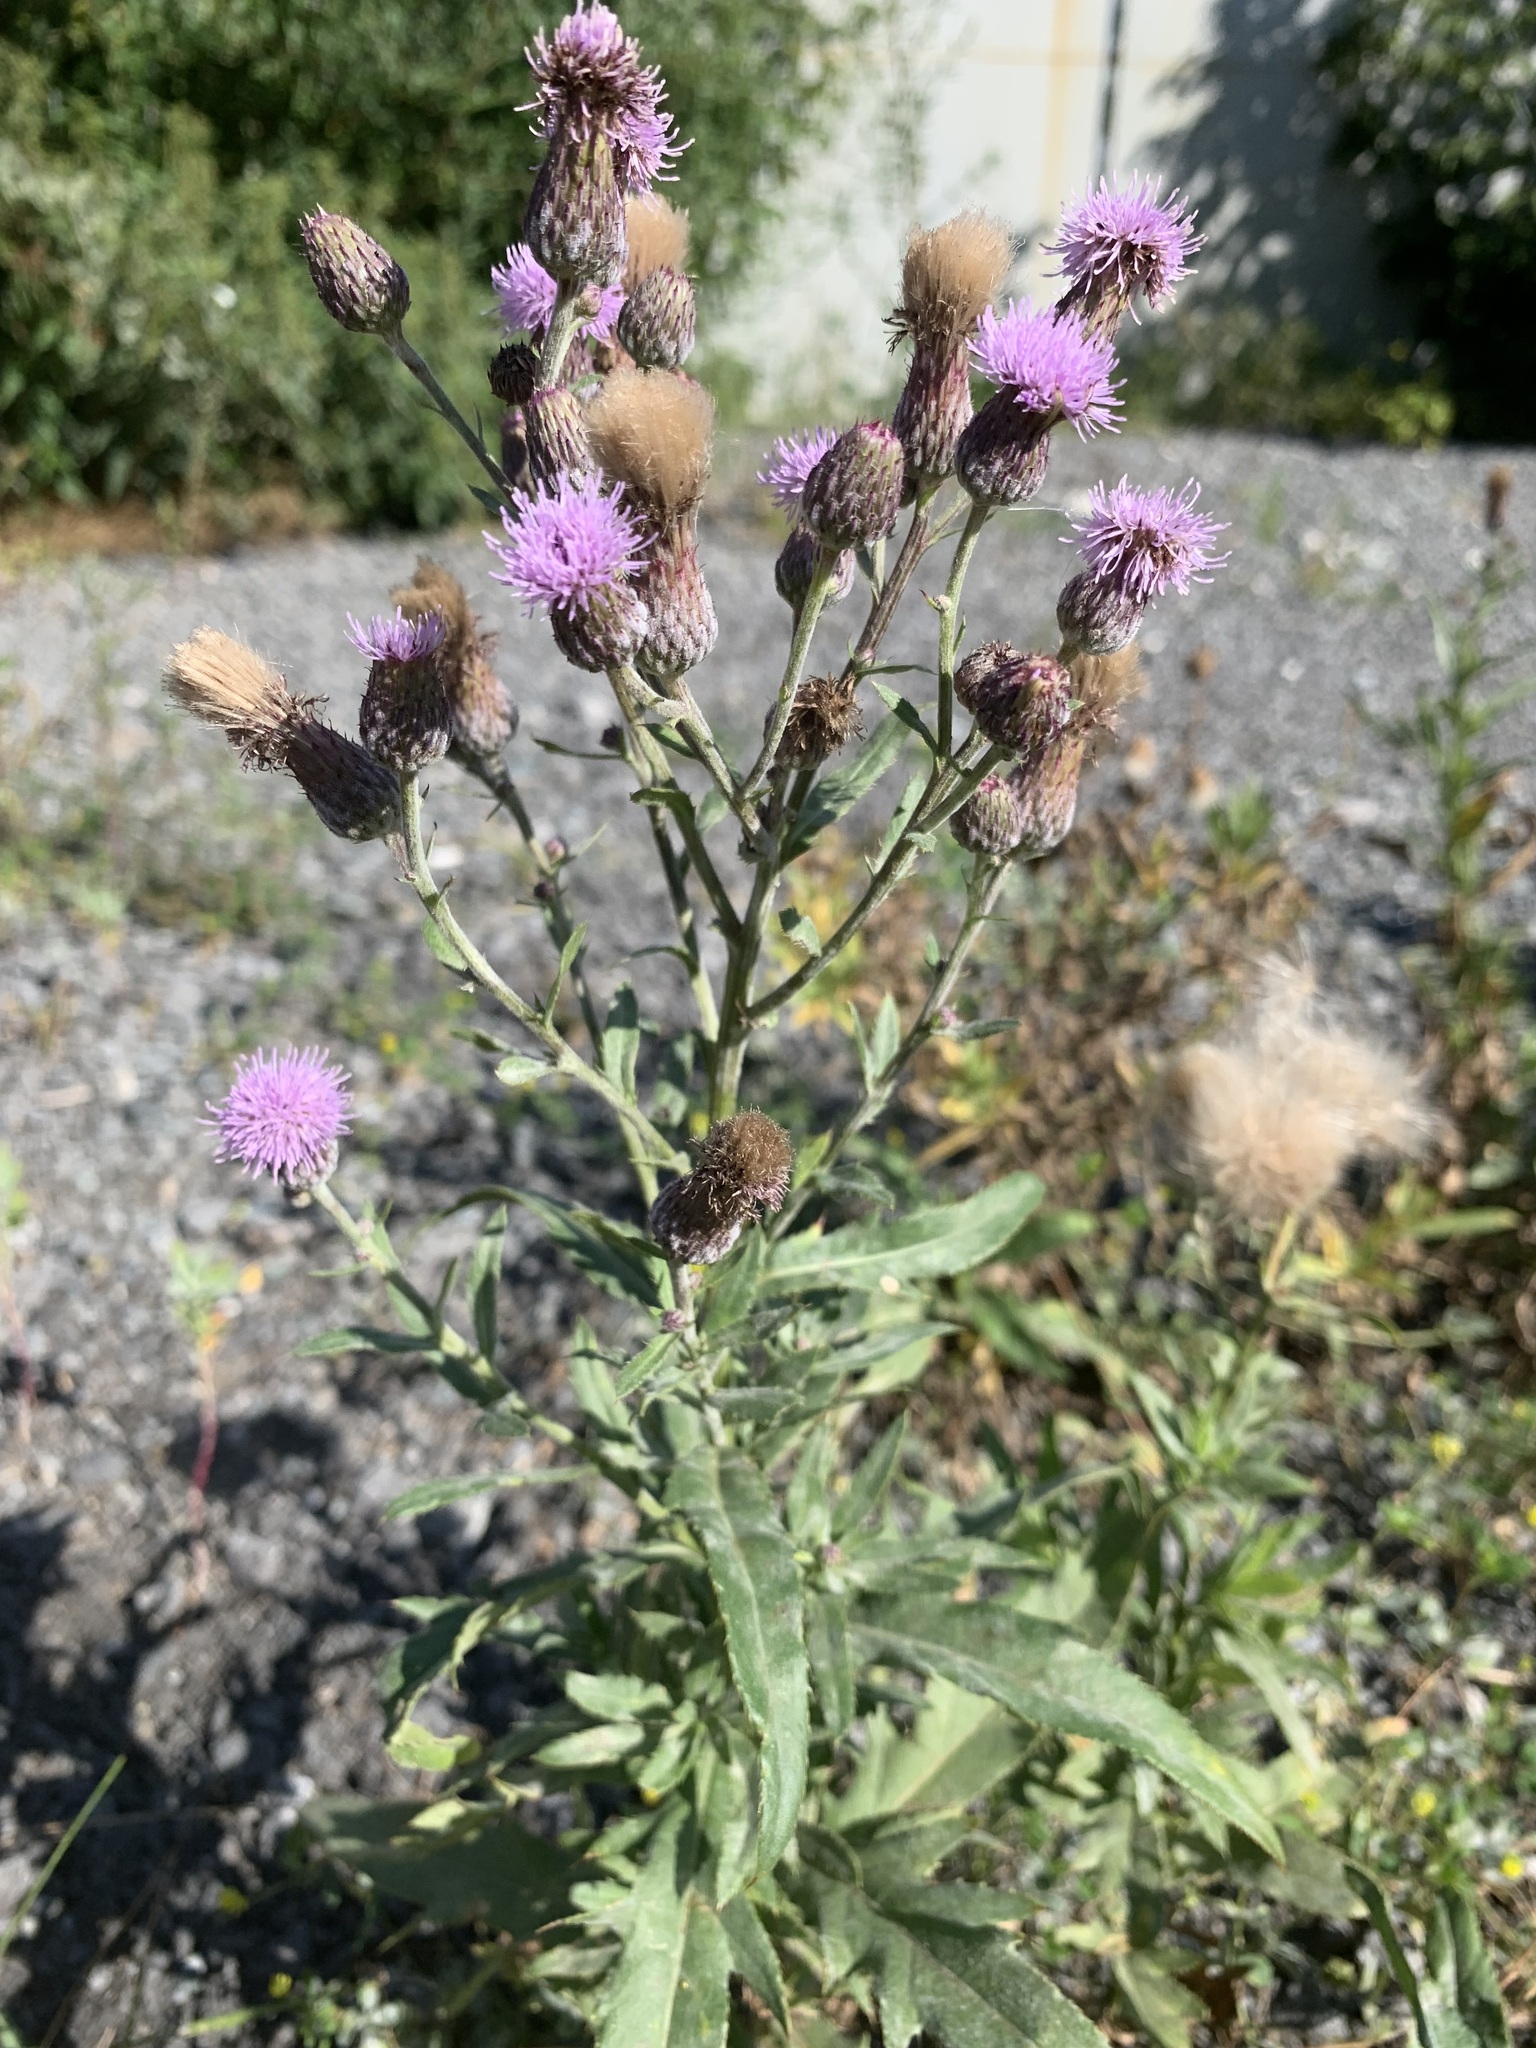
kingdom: Plantae
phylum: Tracheophyta
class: Magnoliopsida
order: Asterales
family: Asteraceae
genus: Cirsium
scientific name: Cirsium arvense
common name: Creeping thistle
